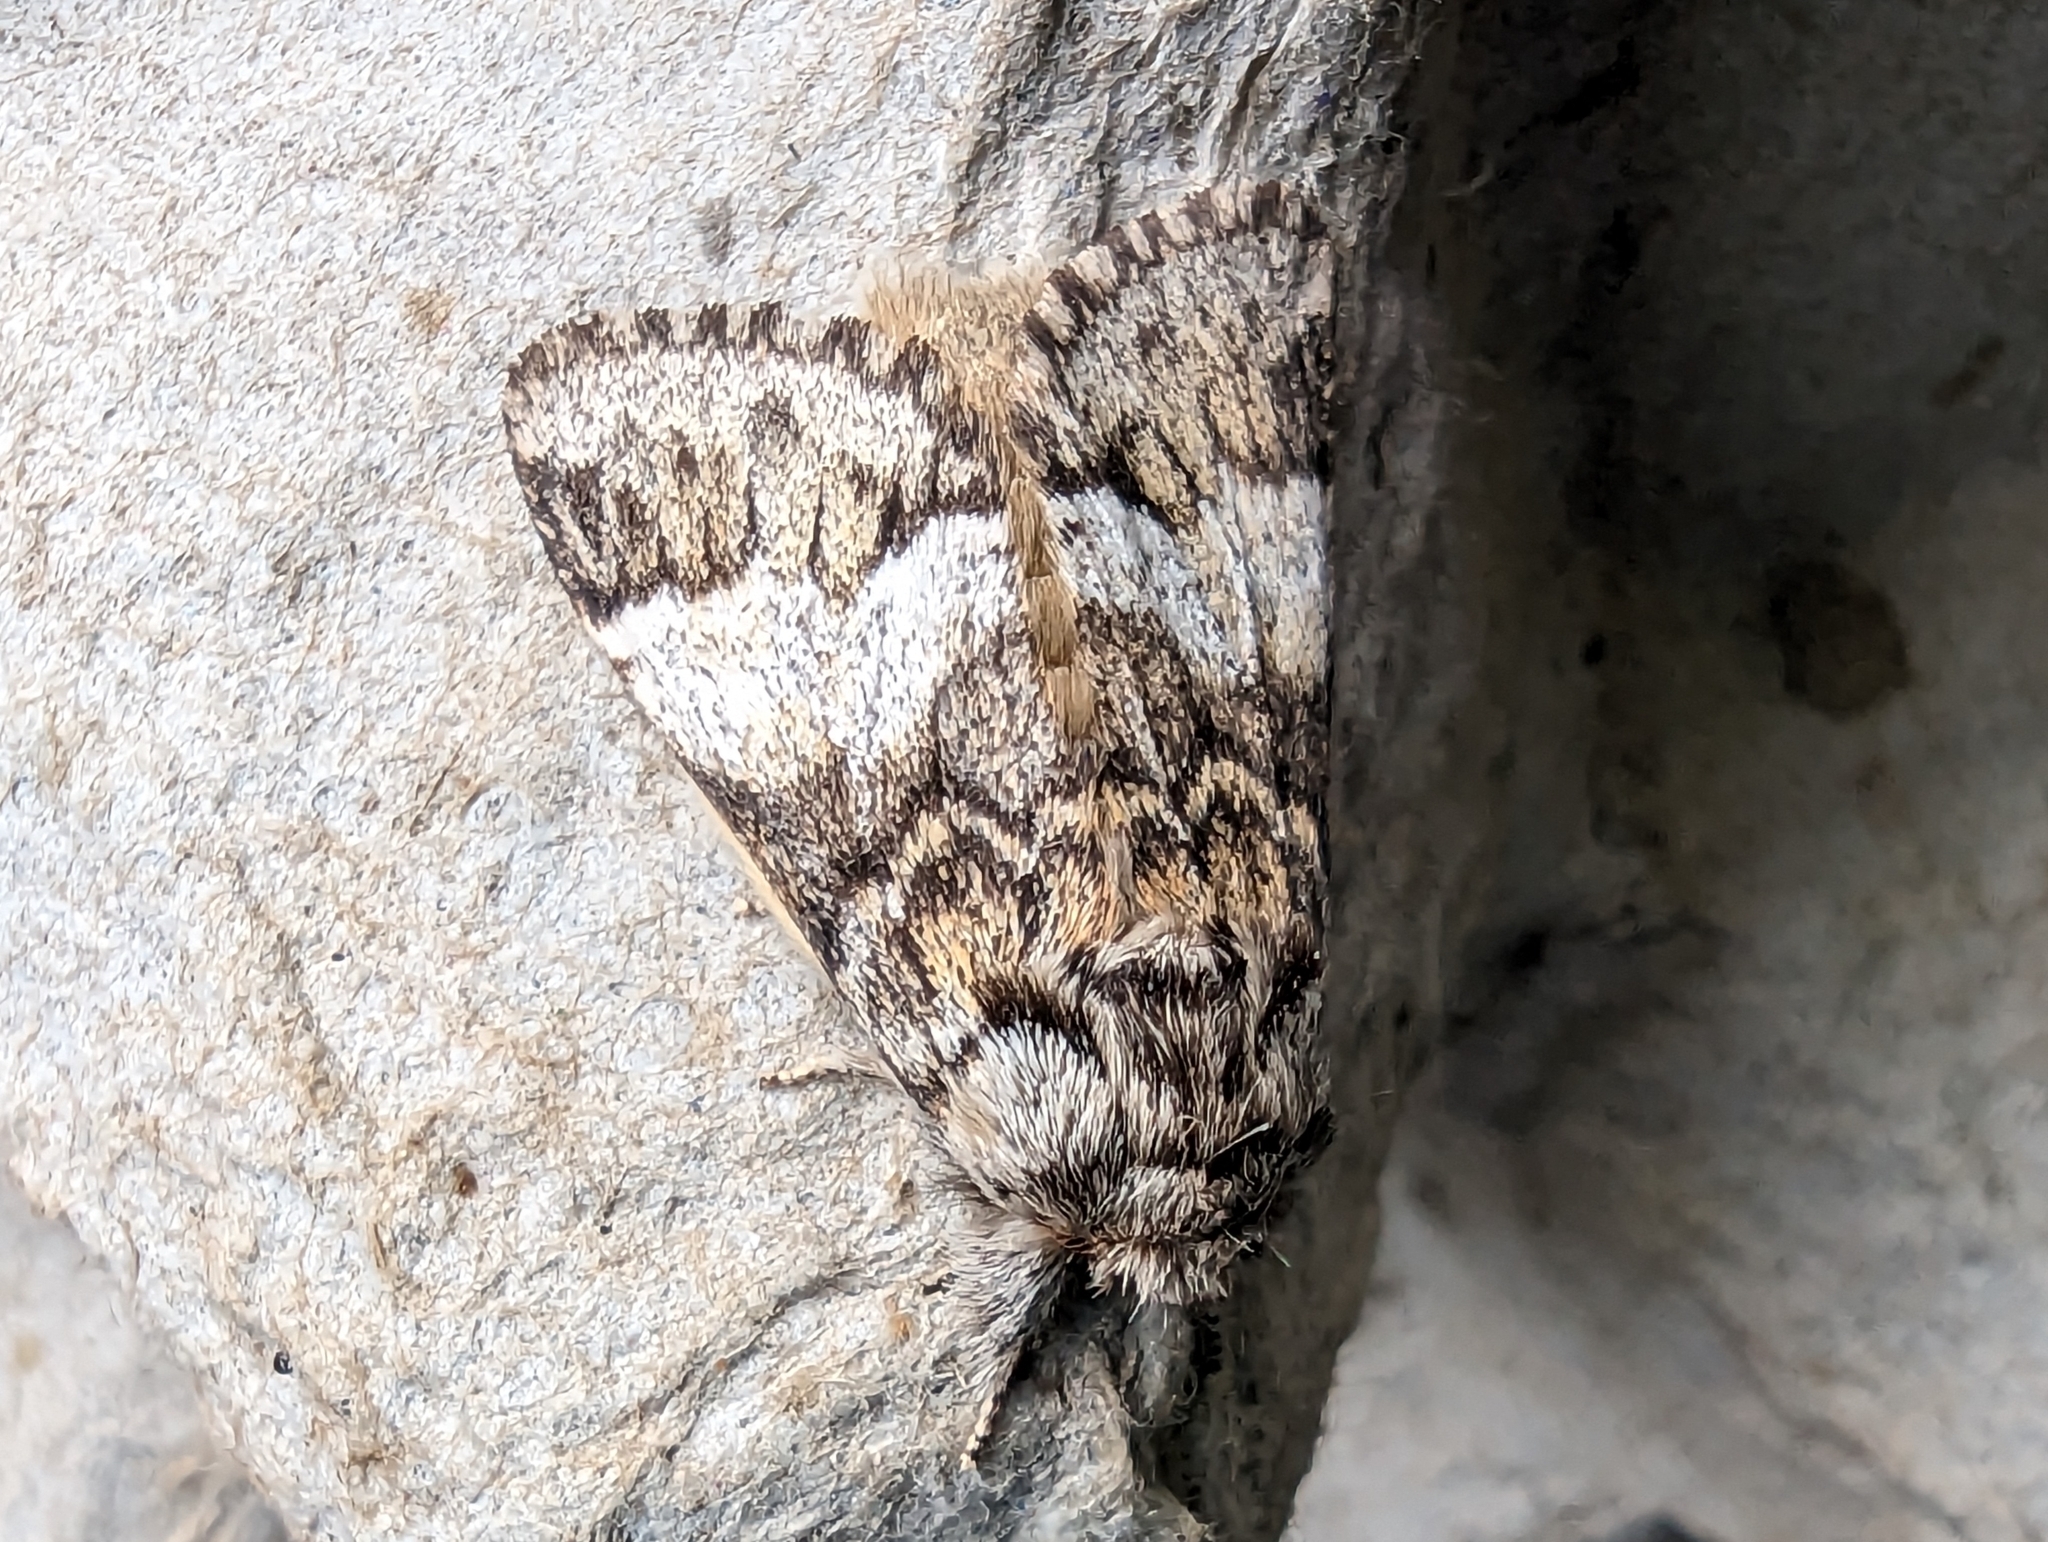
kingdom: Animalia
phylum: Arthropoda
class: Insecta
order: Lepidoptera
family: Notodontidae
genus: Drymonia
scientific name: Drymonia dodonaea
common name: Marbled brown
